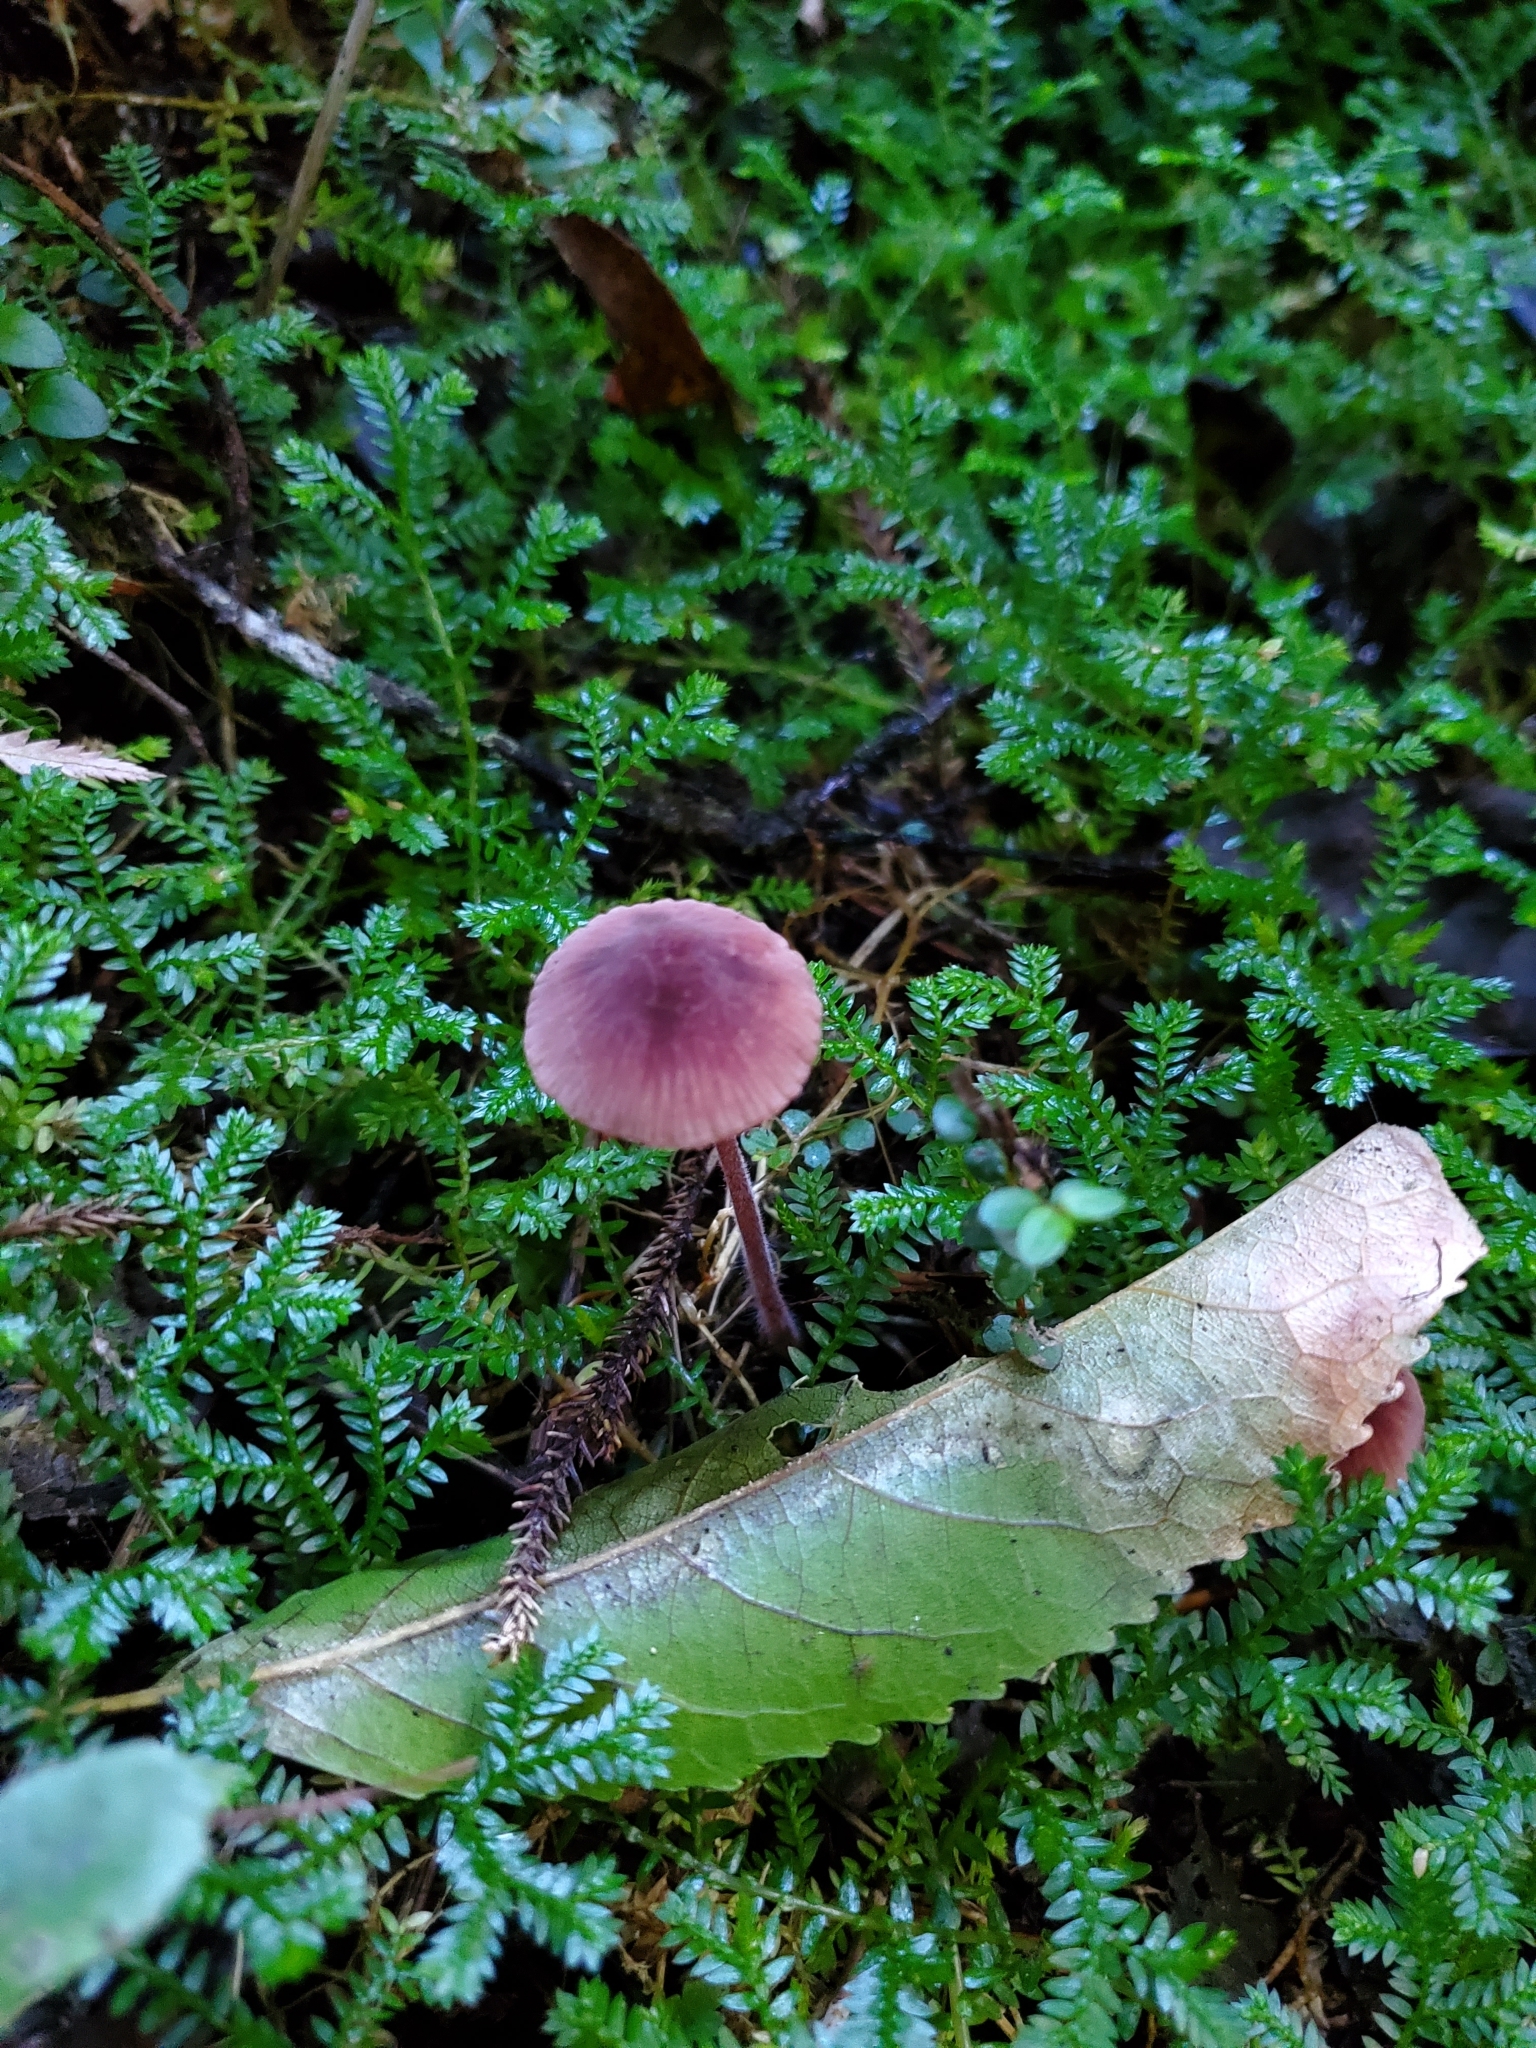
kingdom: Fungi
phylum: Basidiomycota
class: Agaricomycetes
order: Agaricales
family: Mycenaceae
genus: Mycena
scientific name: Mycena mariae
